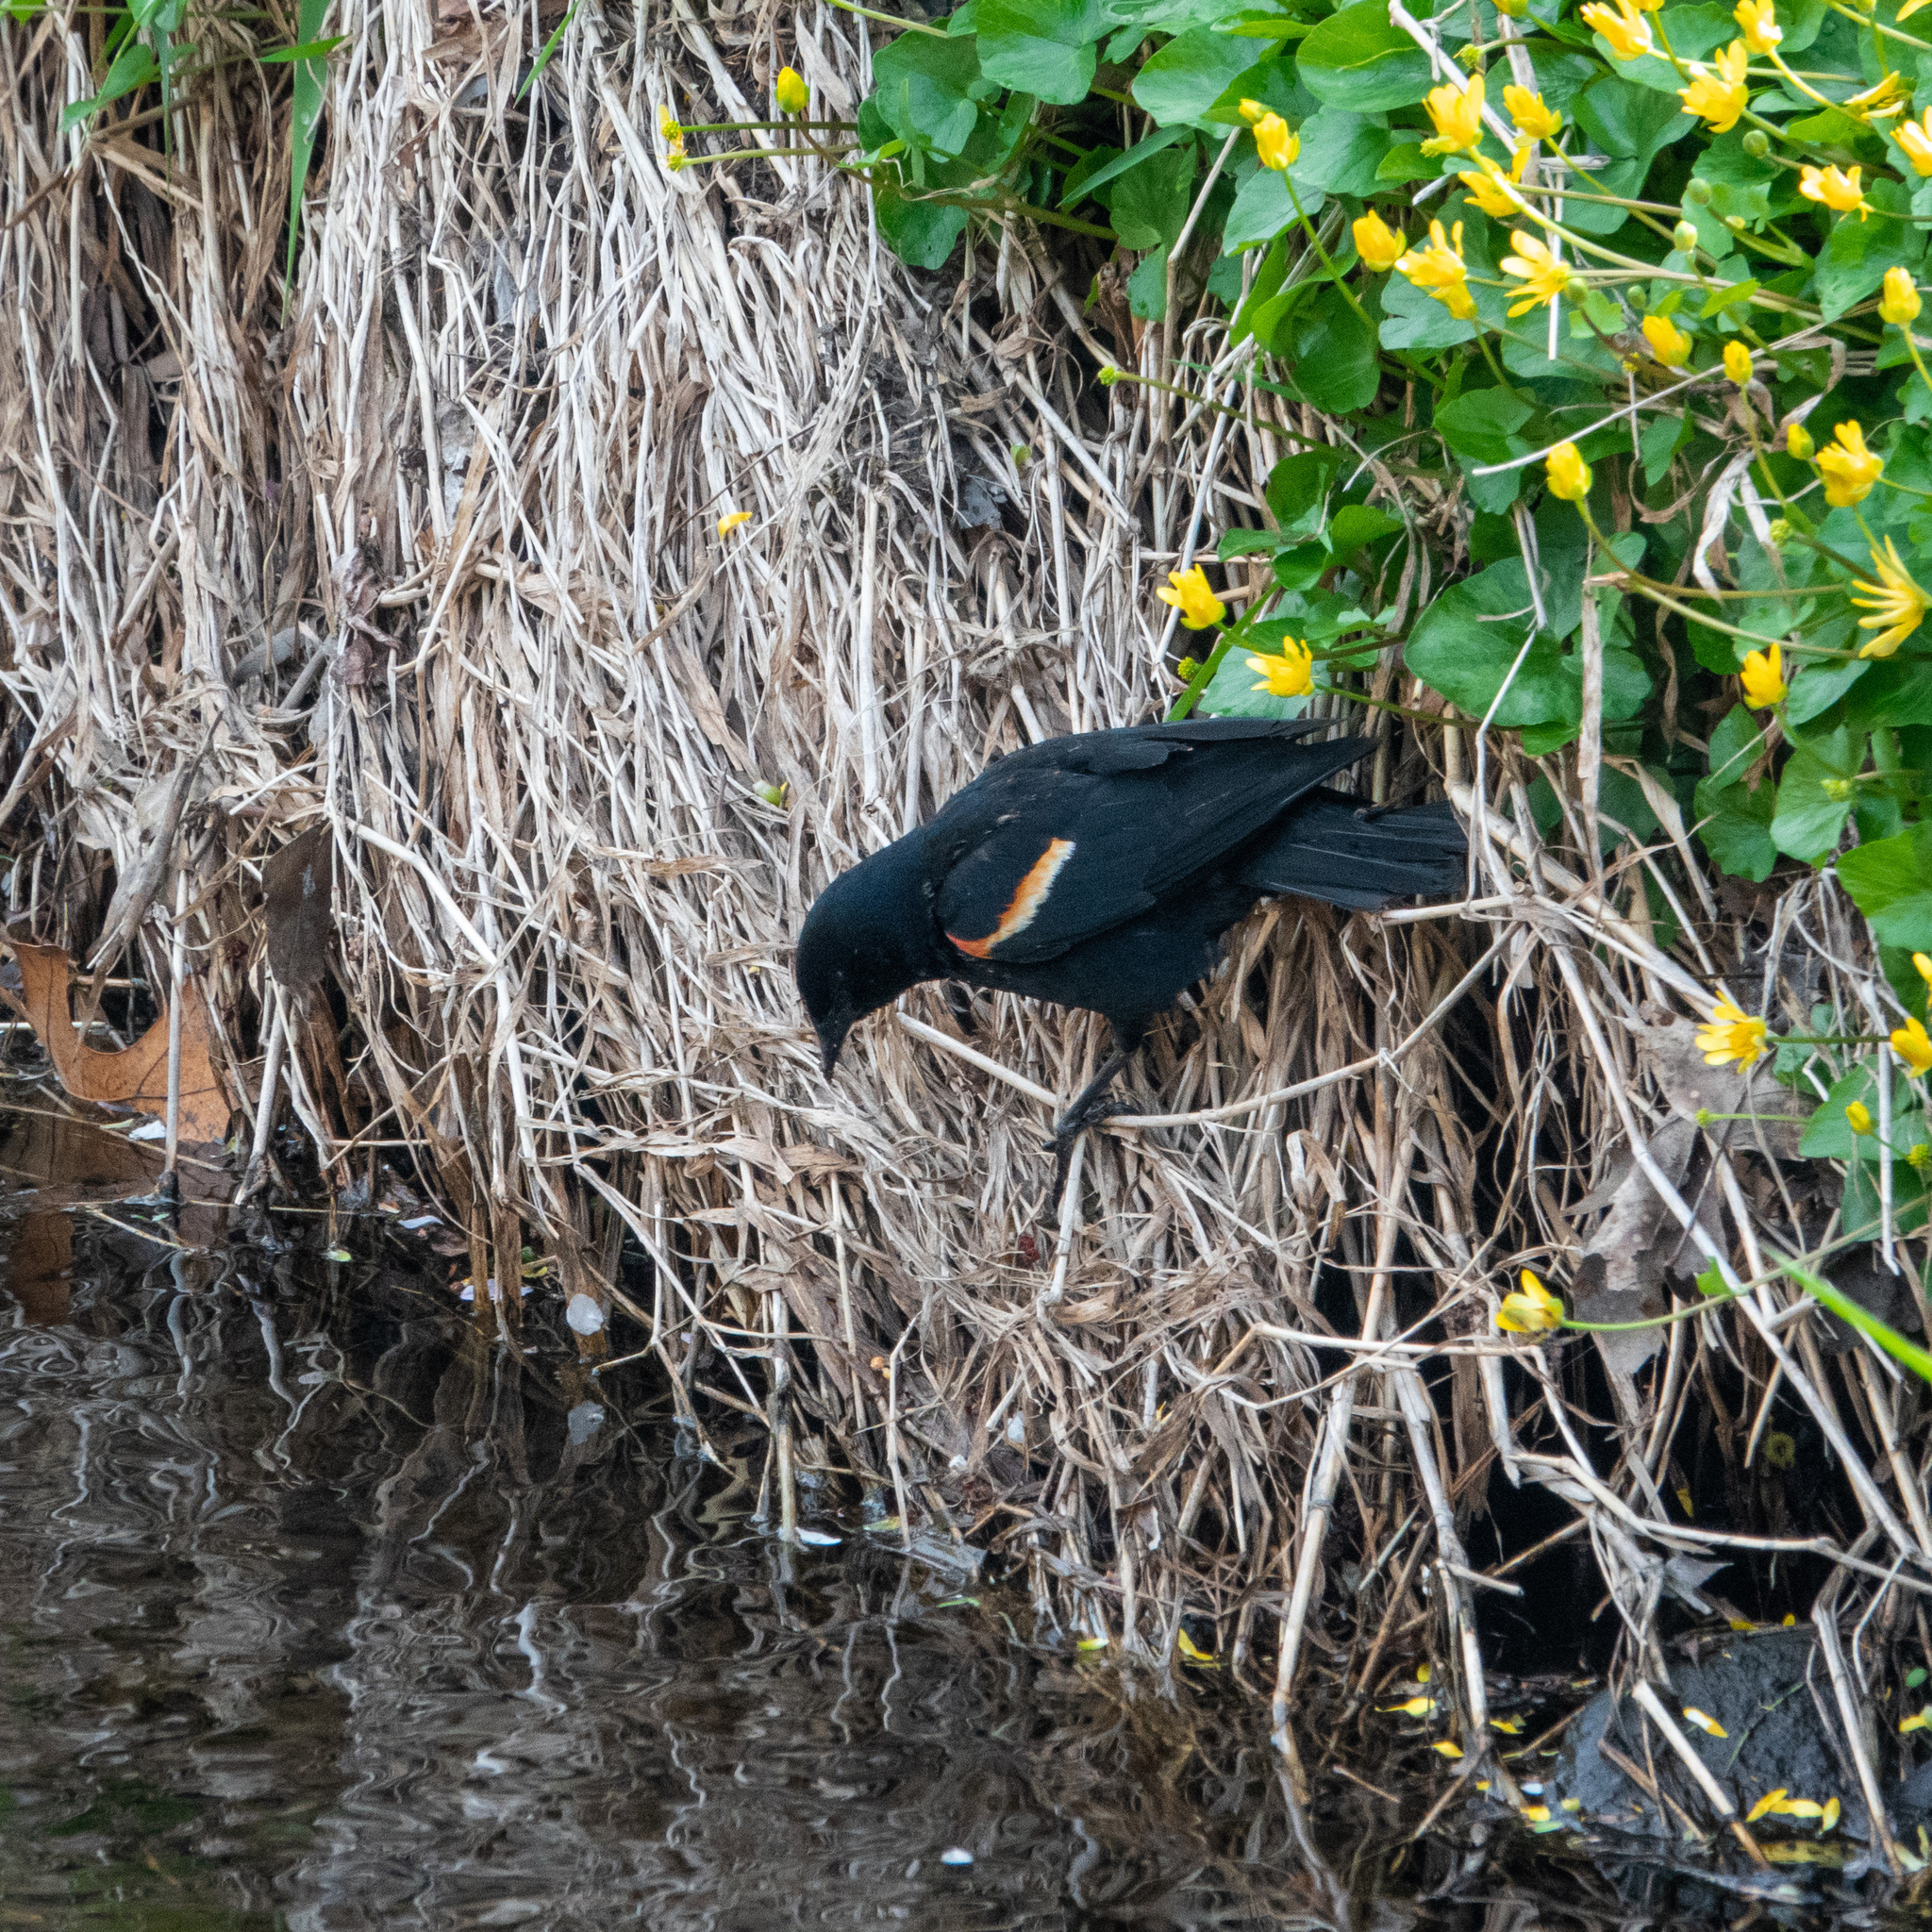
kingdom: Animalia
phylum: Chordata
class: Aves
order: Passeriformes
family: Icteridae
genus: Agelaius
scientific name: Agelaius phoeniceus
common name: Red-winged blackbird
